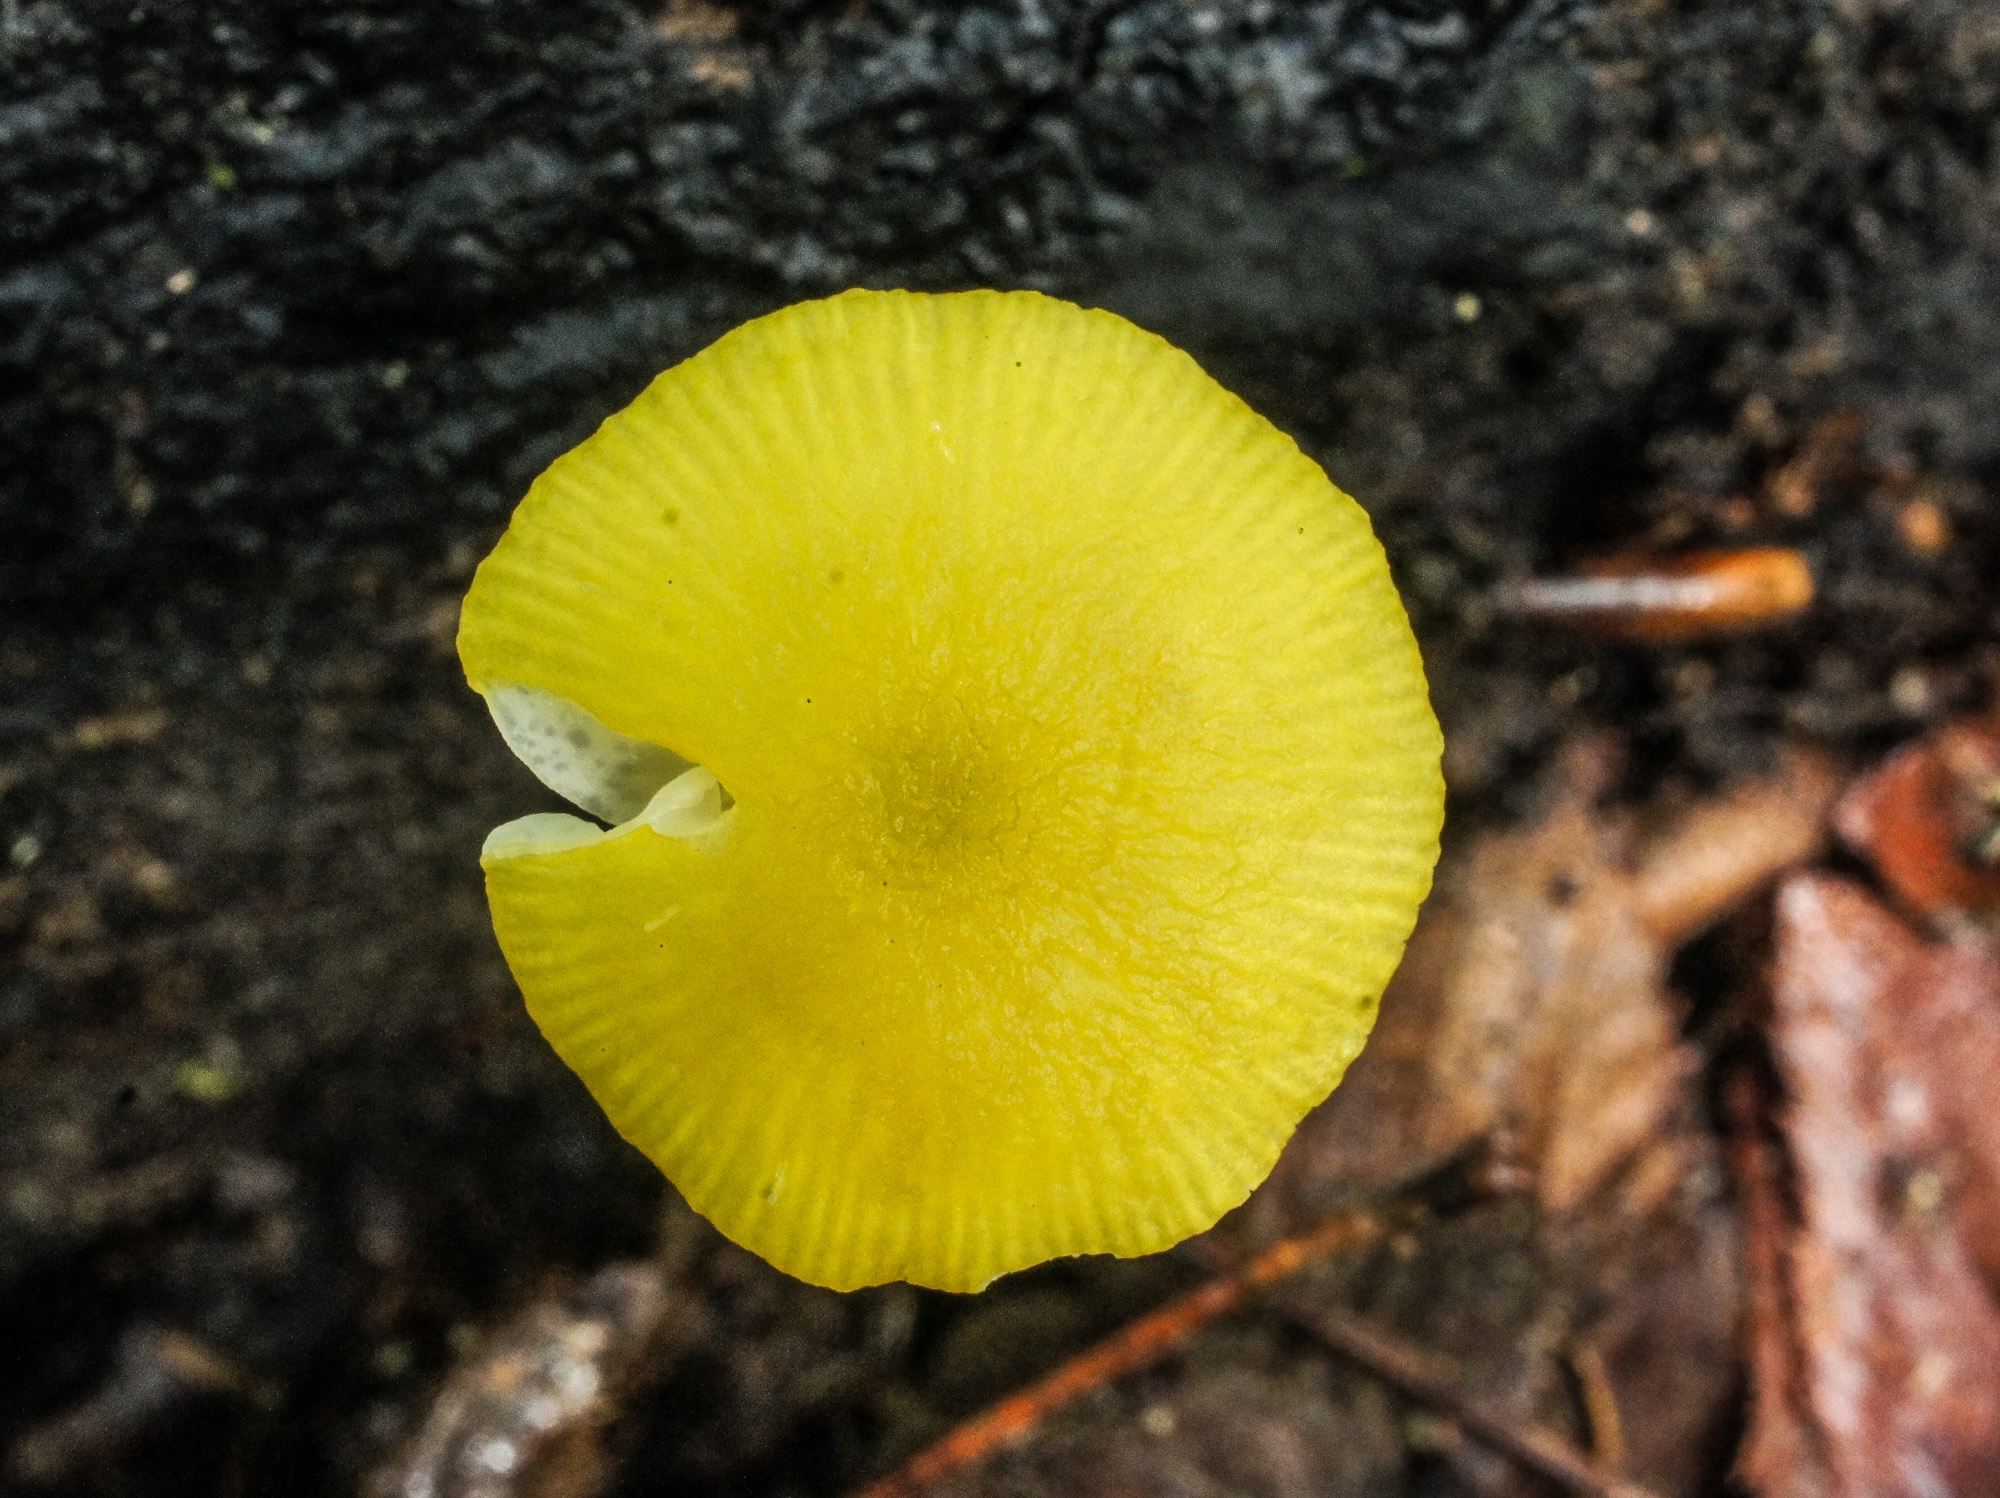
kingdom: Fungi
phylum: Basidiomycota
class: Agaricomycetes
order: Agaricales
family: Pluteaceae
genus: Pluteus
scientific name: Pluteus chrysophlebius
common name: Yellow deer mushroom
